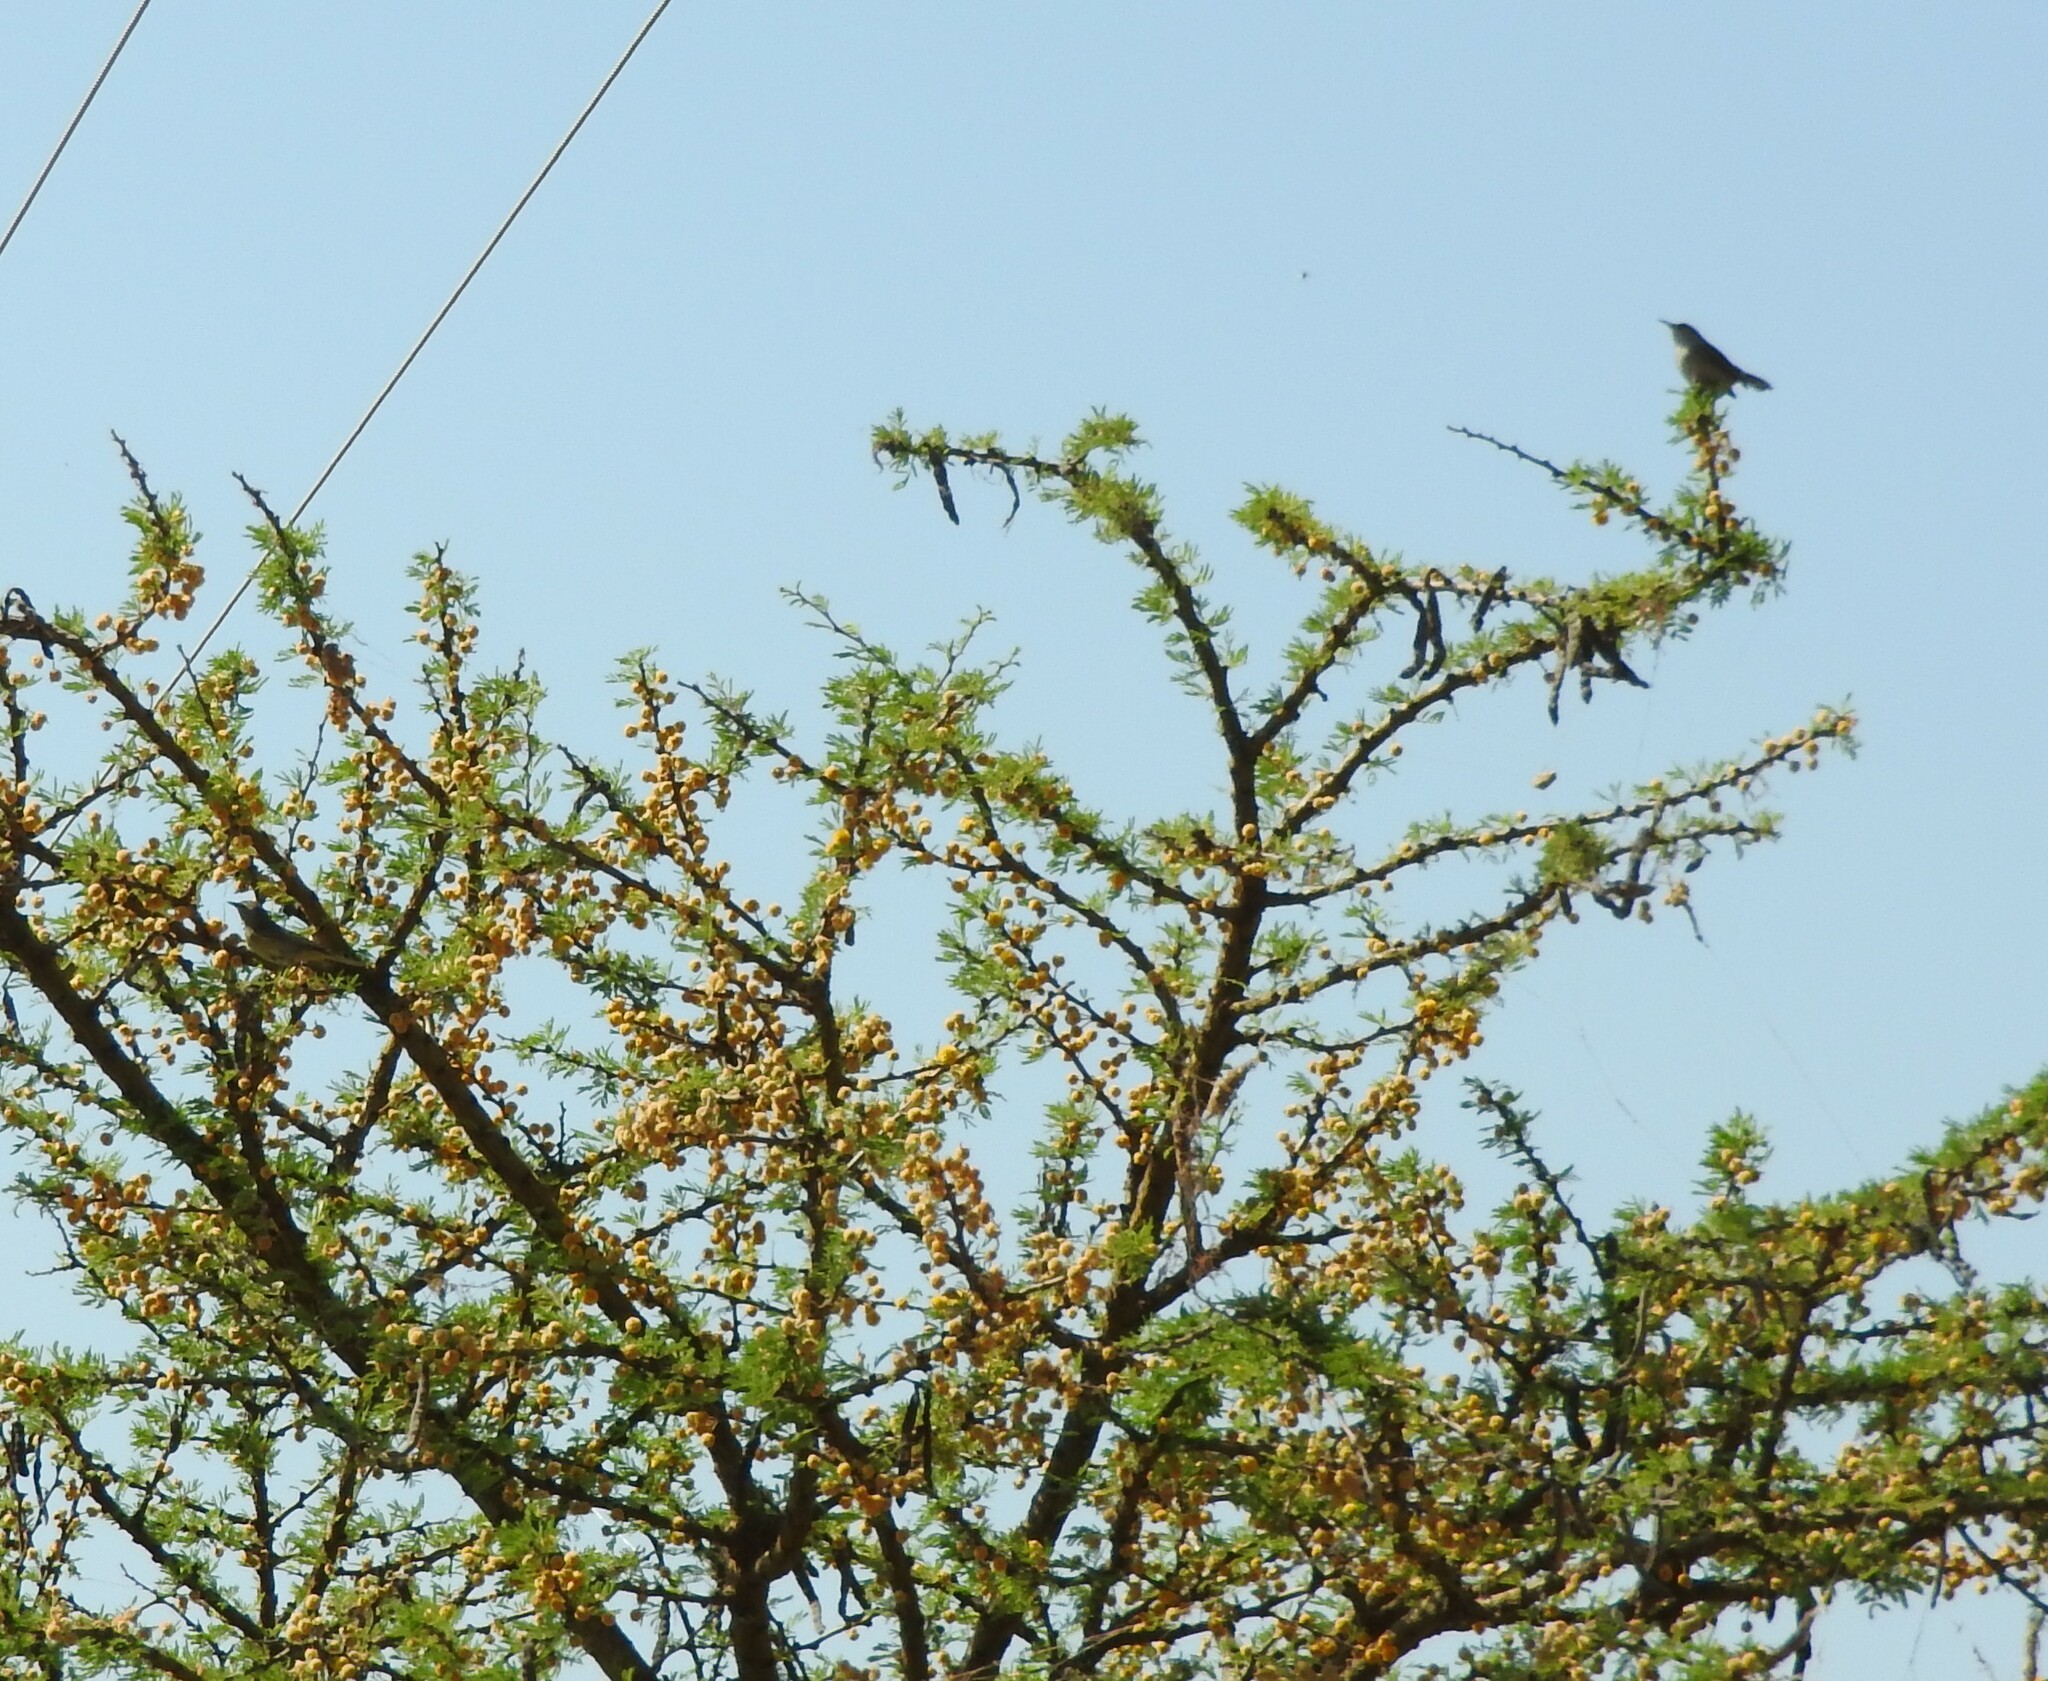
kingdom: Animalia
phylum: Chordata
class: Aves
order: Passeriformes
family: Troglodytidae
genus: Thryomanes
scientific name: Thryomanes bewickii
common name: Bewick's wren
